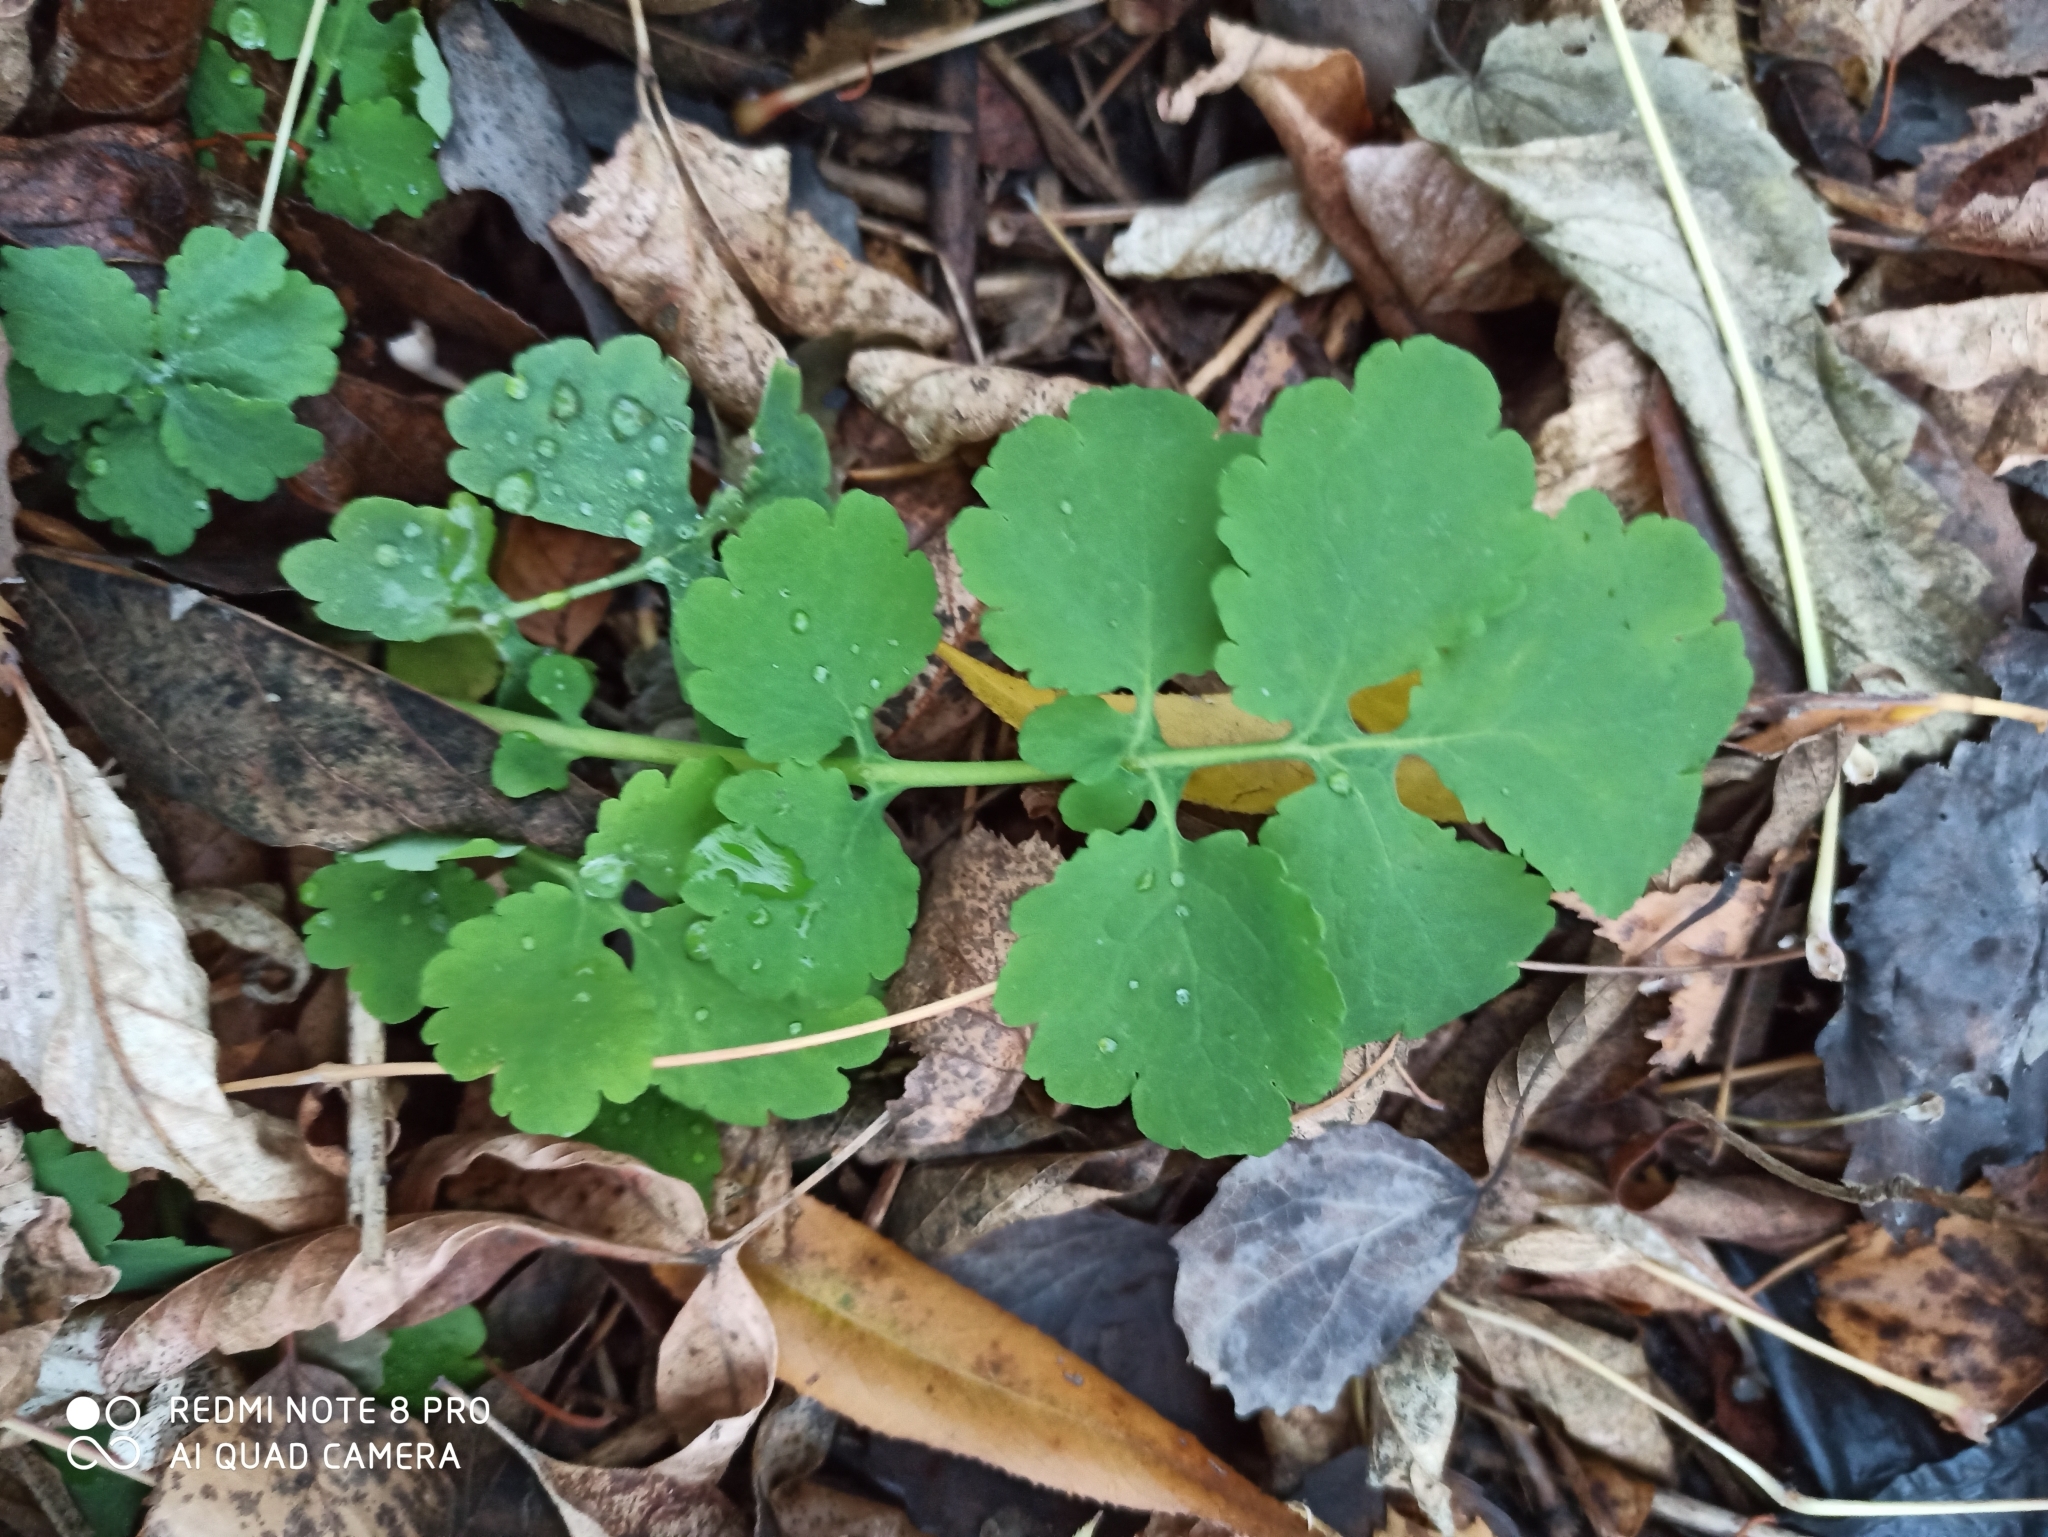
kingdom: Plantae
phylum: Tracheophyta
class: Magnoliopsida
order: Ranunculales
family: Papaveraceae
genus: Chelidonium
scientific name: Chelidonium majus
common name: Greater celandine
